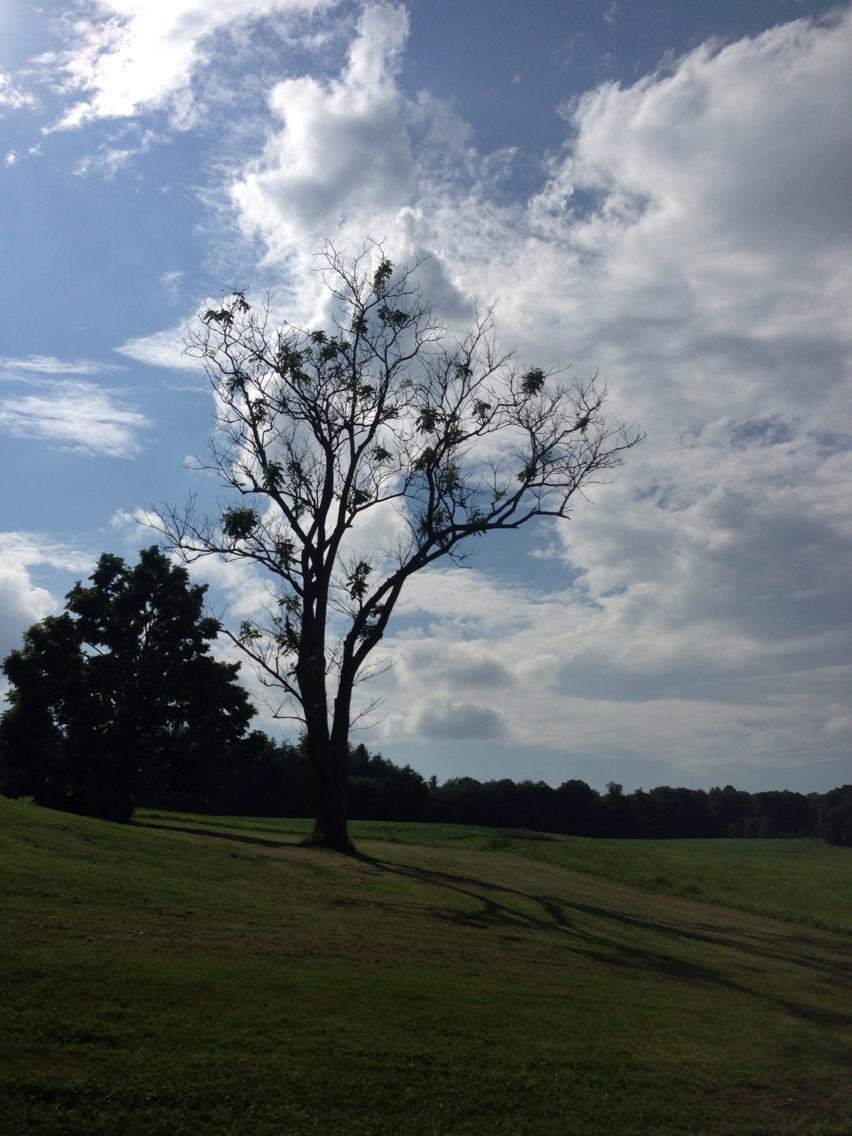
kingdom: Plantae
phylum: Tracheophyta
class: Magnoliopsida
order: Fagales
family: Juglandaceae
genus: Juglans
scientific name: Juglans cinerea
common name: Butternut
